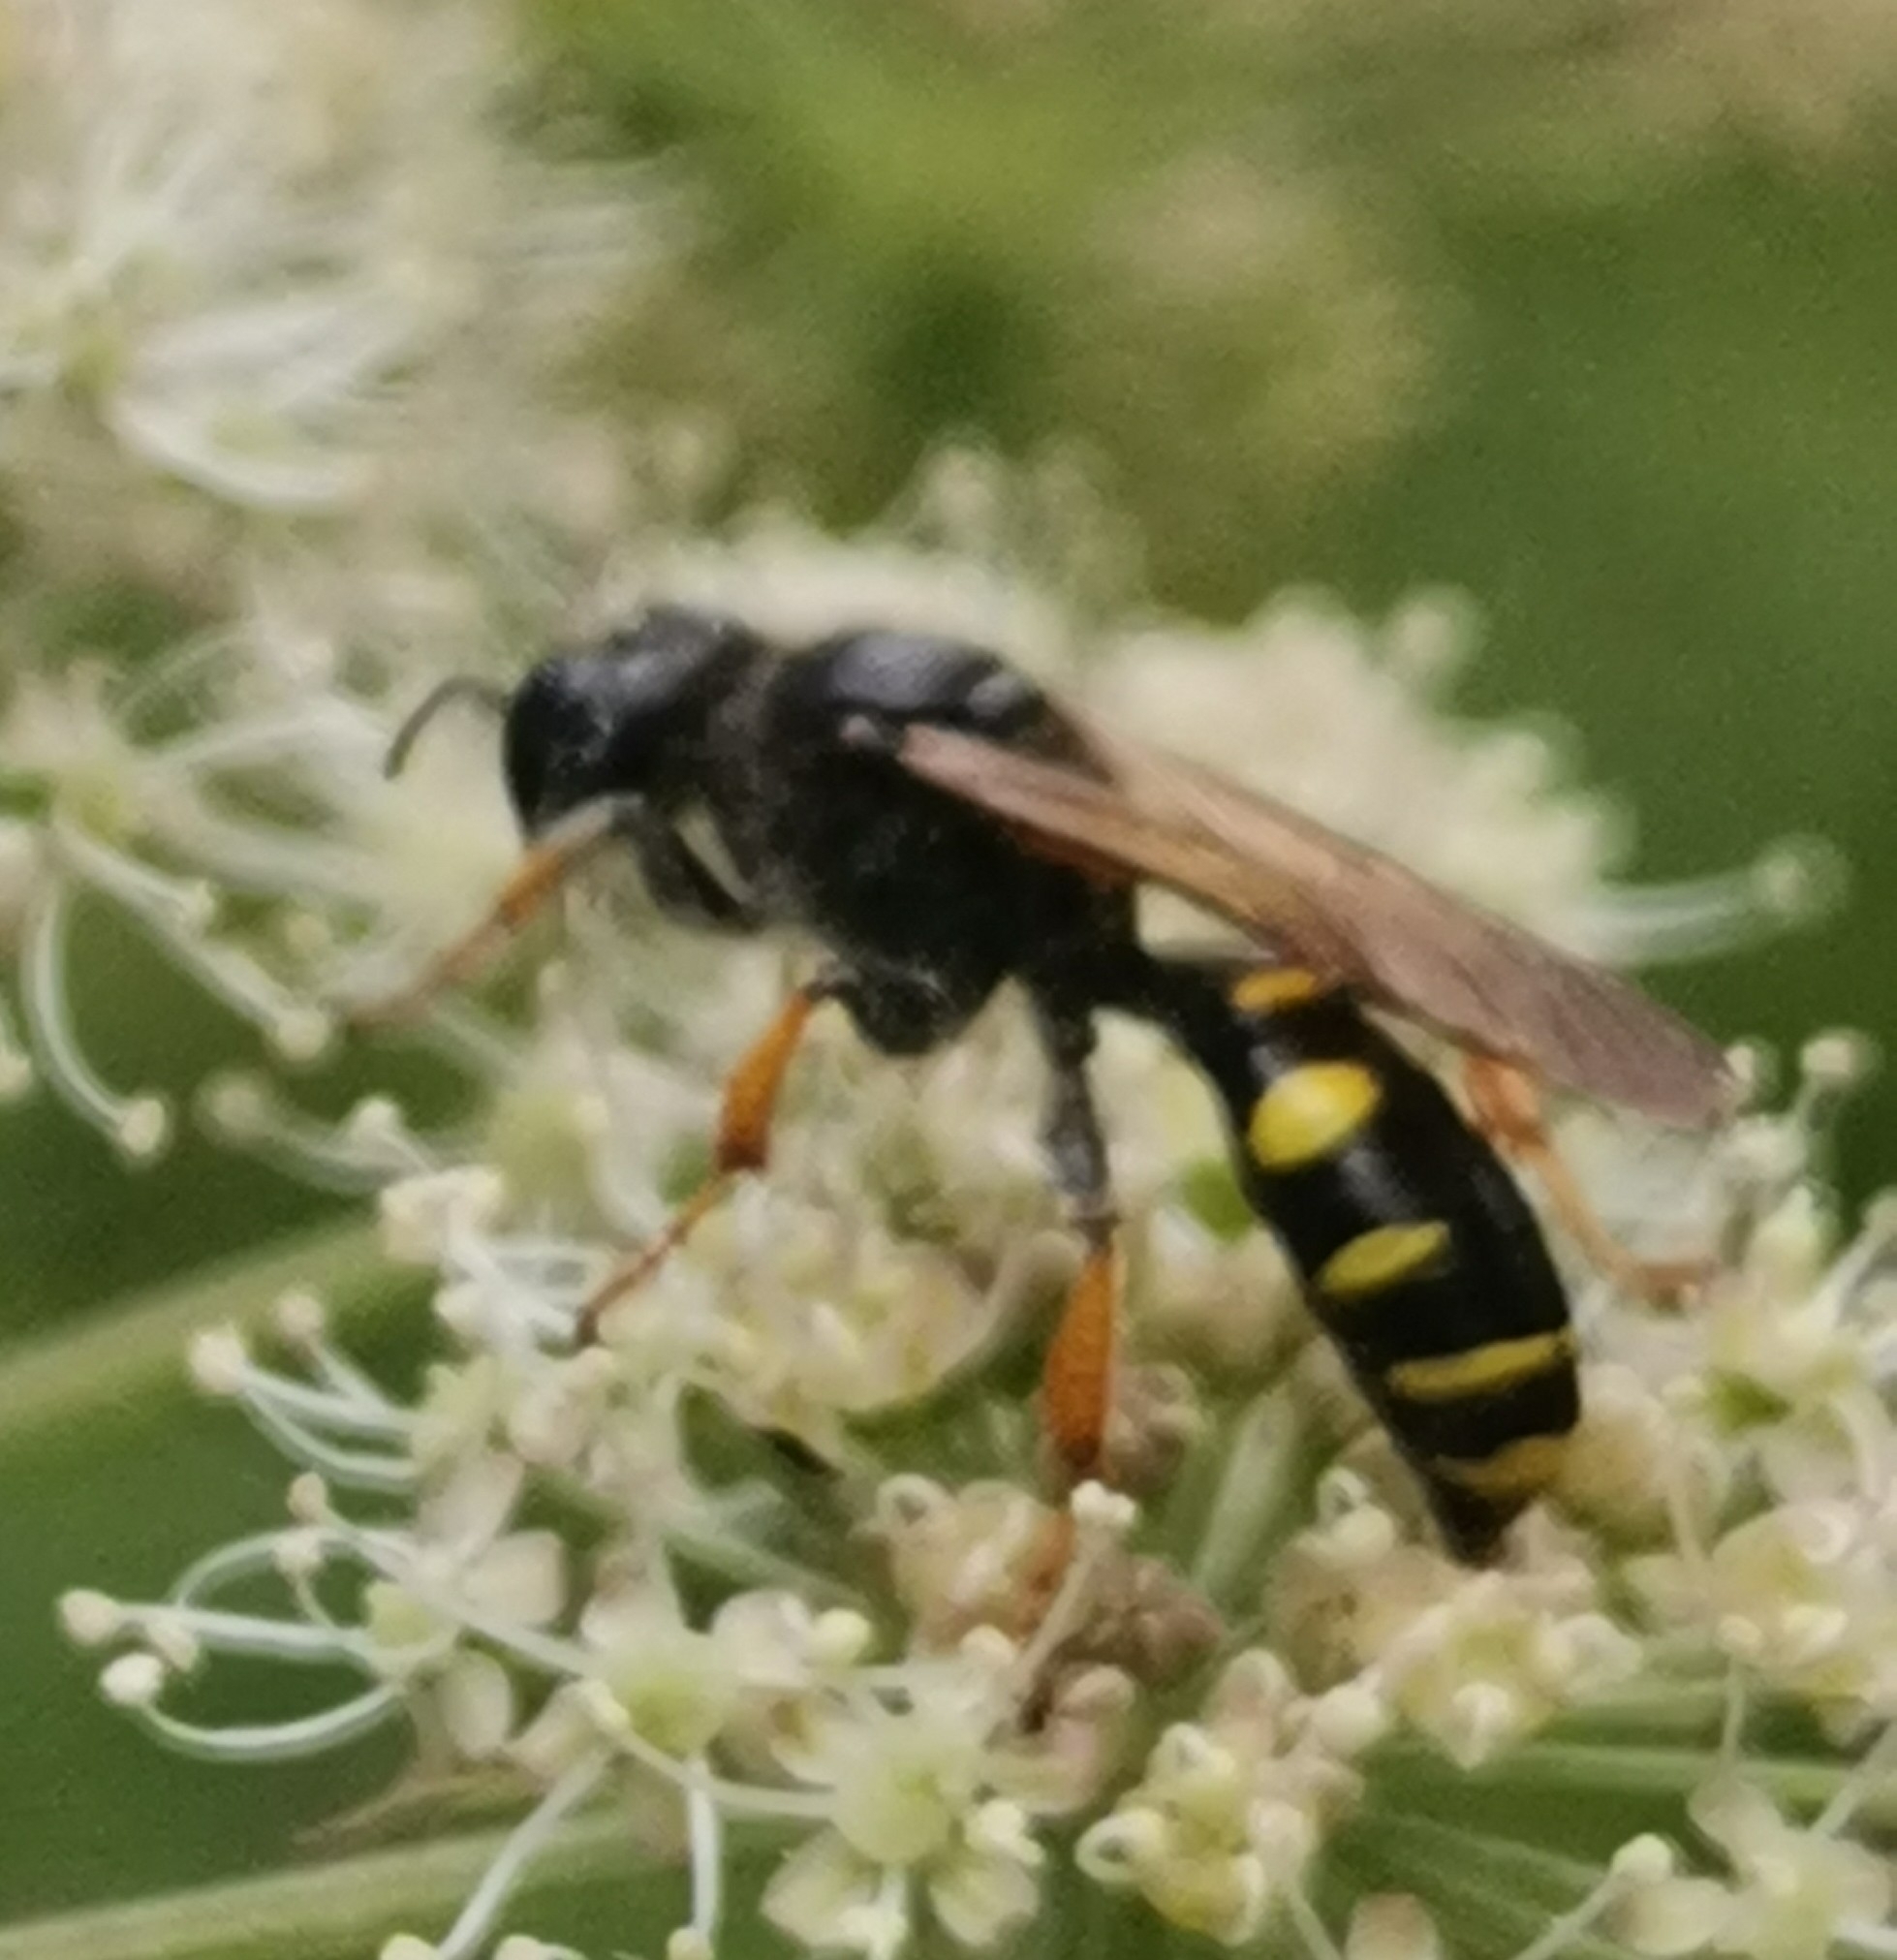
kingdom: Animalia
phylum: Arthropoda
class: Insecta
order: Hymenoptera
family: Crabronidae
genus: Crabro
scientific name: Crabro cribrarius
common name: Slender bodied digger wasp
